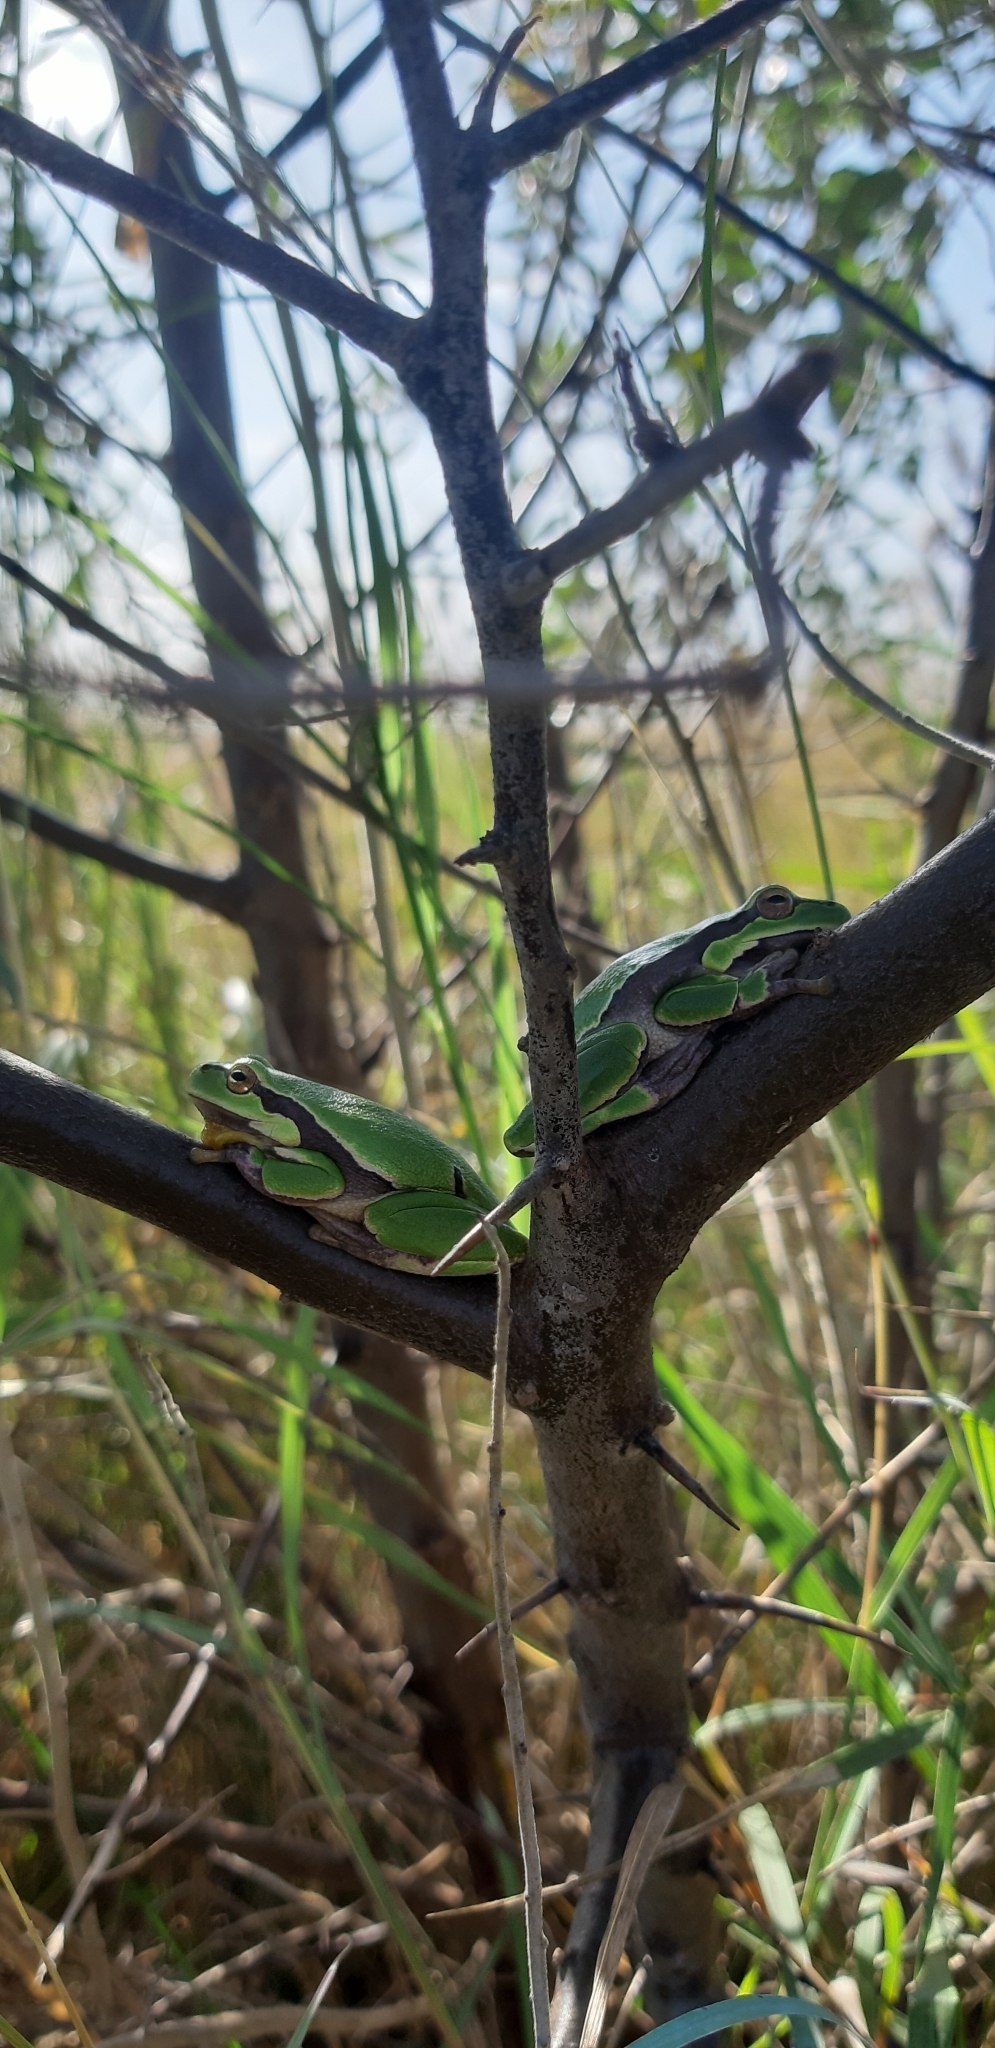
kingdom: Animalia
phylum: Chordata
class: Amphibia
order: Anura
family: Hylidae
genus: Hyla
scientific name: Hyla arborea
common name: Common tree frog
